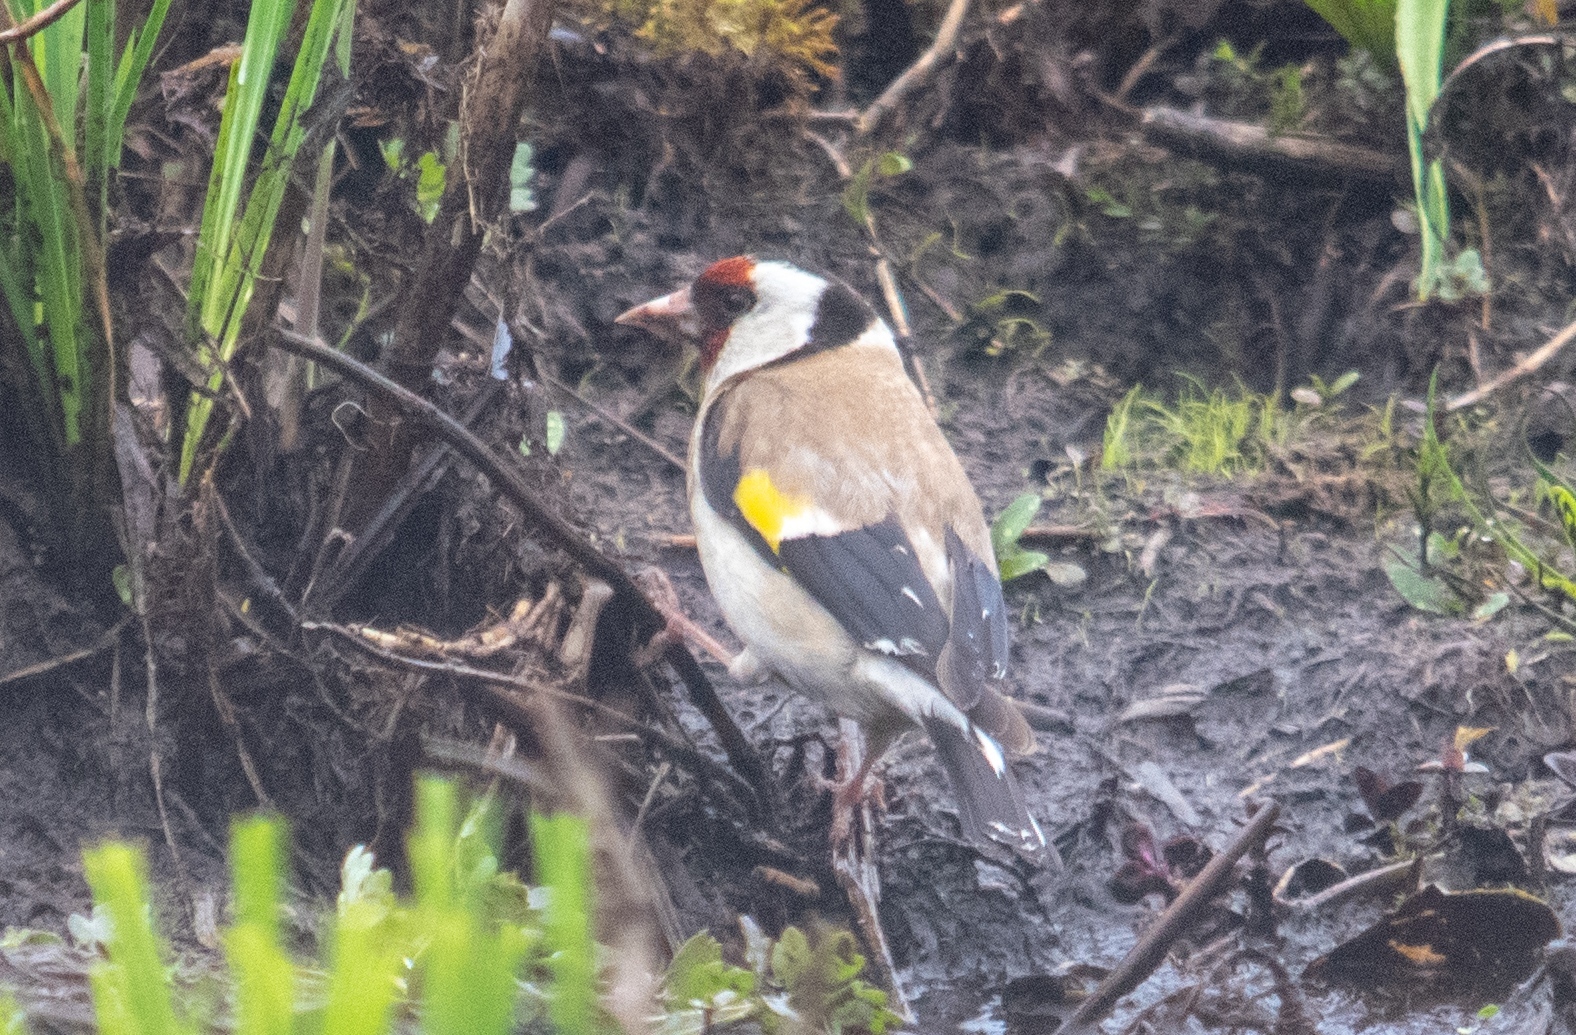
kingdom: Animalia
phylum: Chordata
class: Aves
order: Passeriformes
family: Fringillidae
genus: Carduelis
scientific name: Carduelis carduelis
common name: European goldfinch
